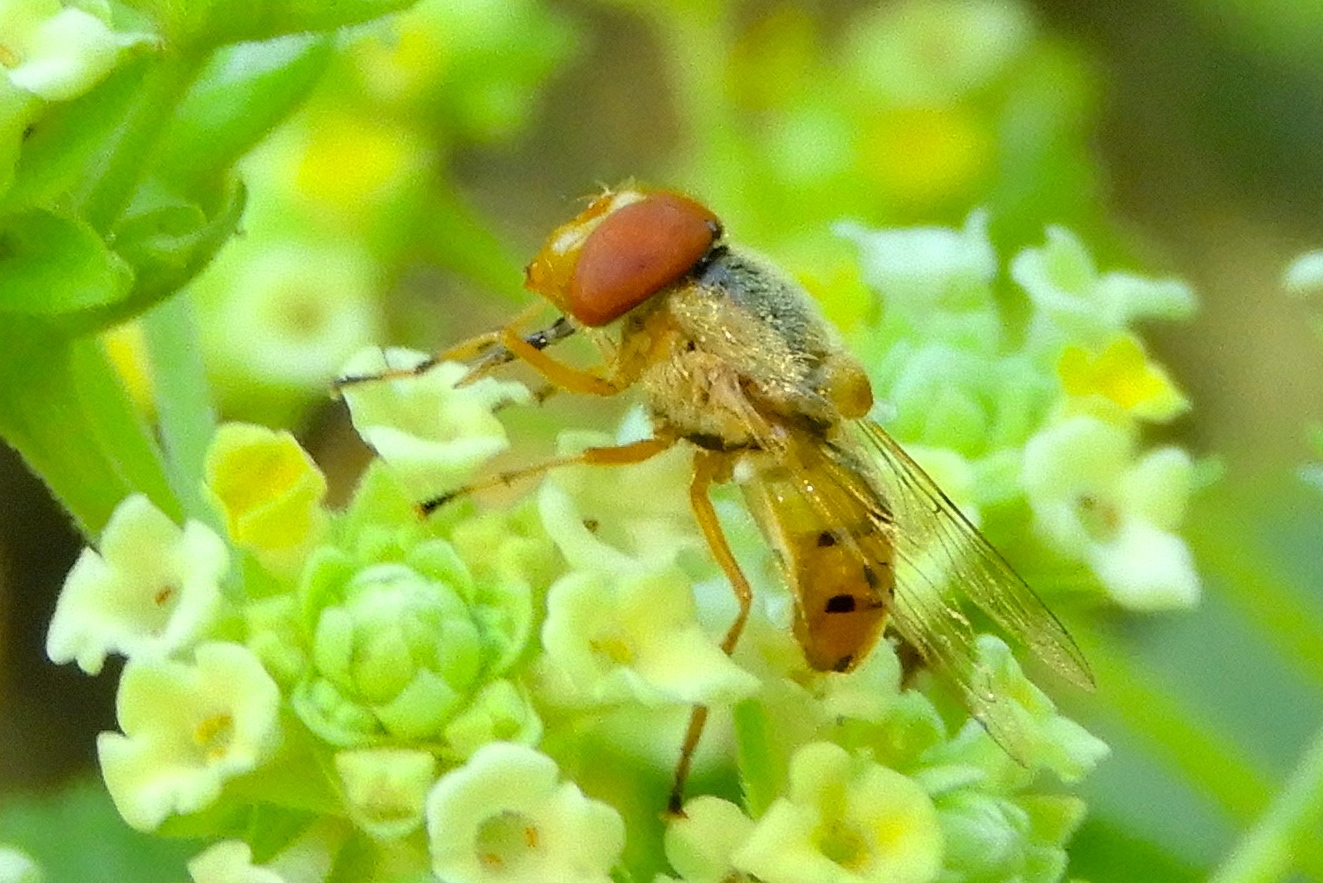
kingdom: Animalia
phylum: Arthropoda
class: Insecta
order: Diptera
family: Syrphidae
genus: Copestylum
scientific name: Copestylum sexmaculatum
